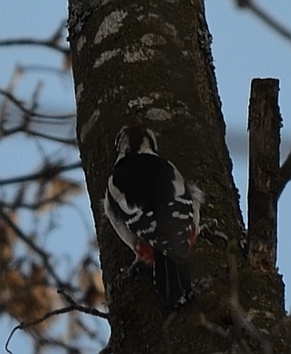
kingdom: Animalia
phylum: Chordata
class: Aves
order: Piciformes
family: Picidae
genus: Dendrocopos
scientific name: Dendrocopos major
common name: Great spotted woodpecker
